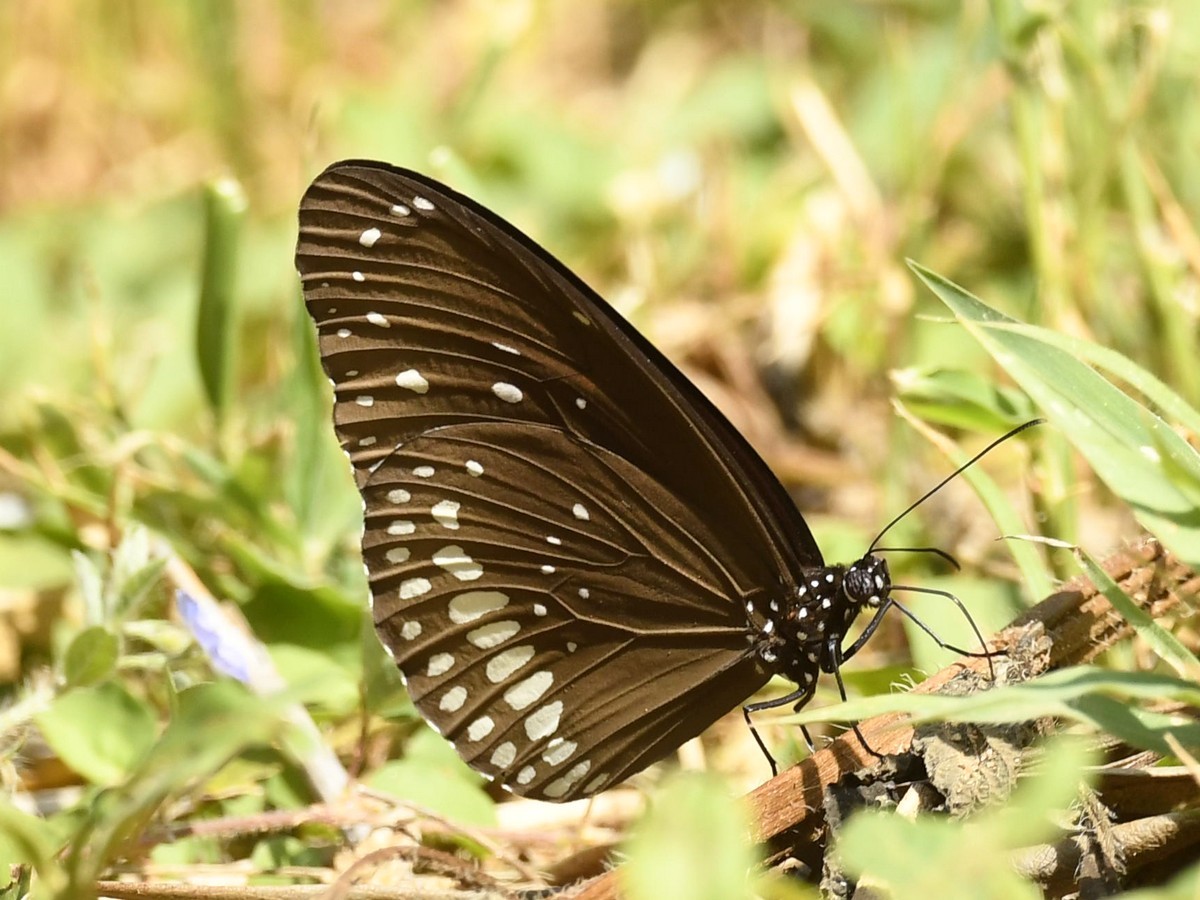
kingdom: Animalia
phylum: Arthropoda
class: Insecta
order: Lepidoptera
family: Nymphalidae
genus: Euploea
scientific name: Euploea core
